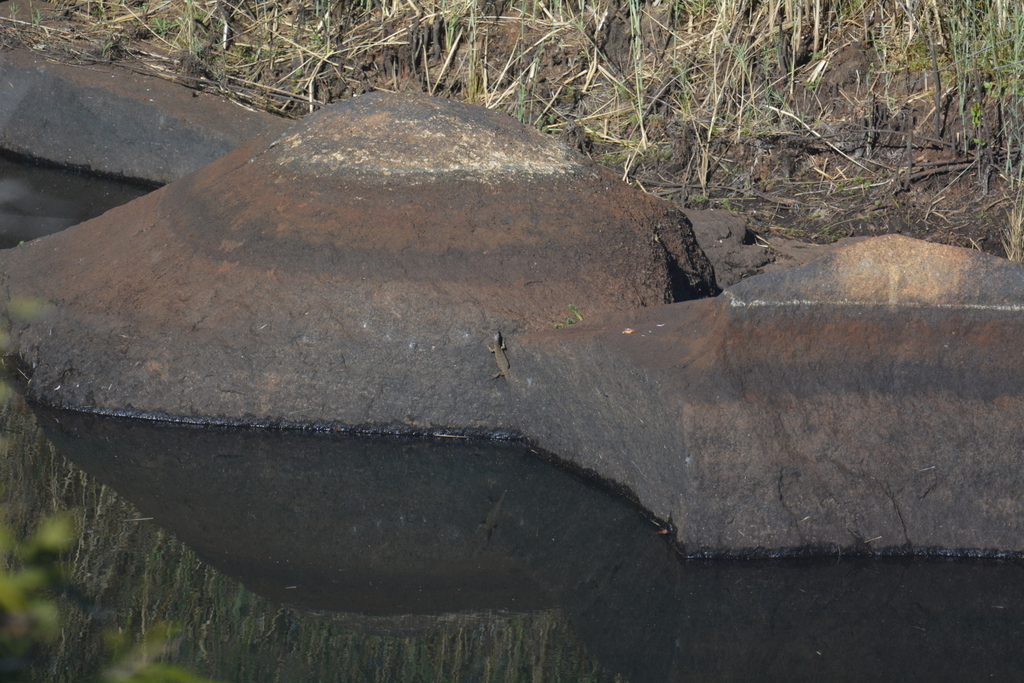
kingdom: Animalia
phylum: Chordata
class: Squamata
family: Varanidae
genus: Varanus
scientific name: Varanus niloticus
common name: Nile monitor
